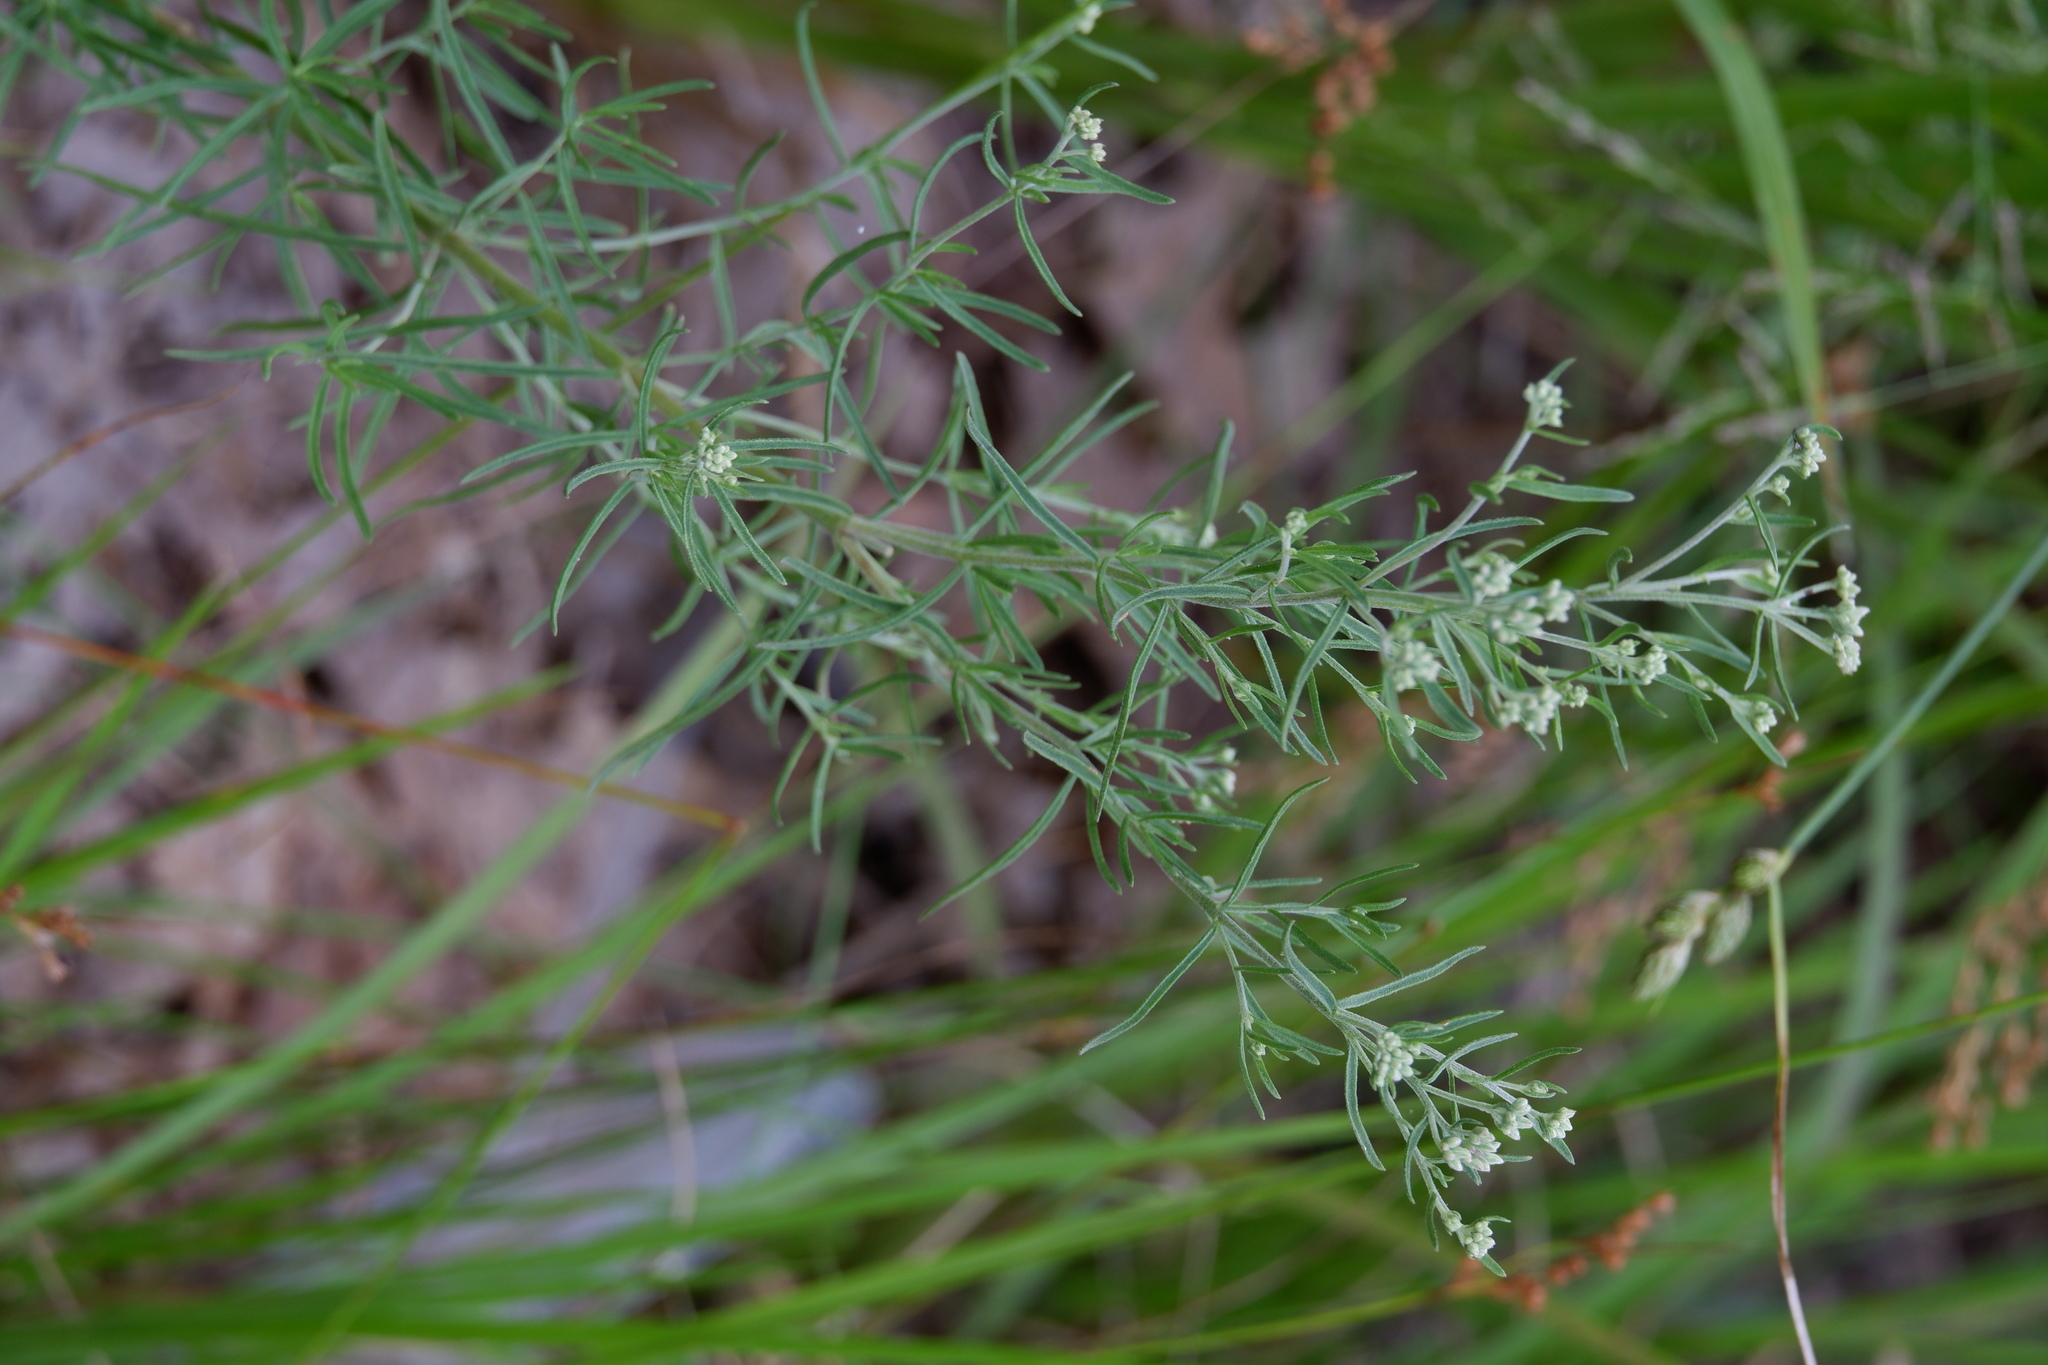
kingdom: Plantae
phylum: Tracheophyta
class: Magnoliopsida
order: Asterales
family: Asteraceae
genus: Eupatorium
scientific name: Eupatorium hyssopifolium
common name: Hyssop-leaf thoroughwort
